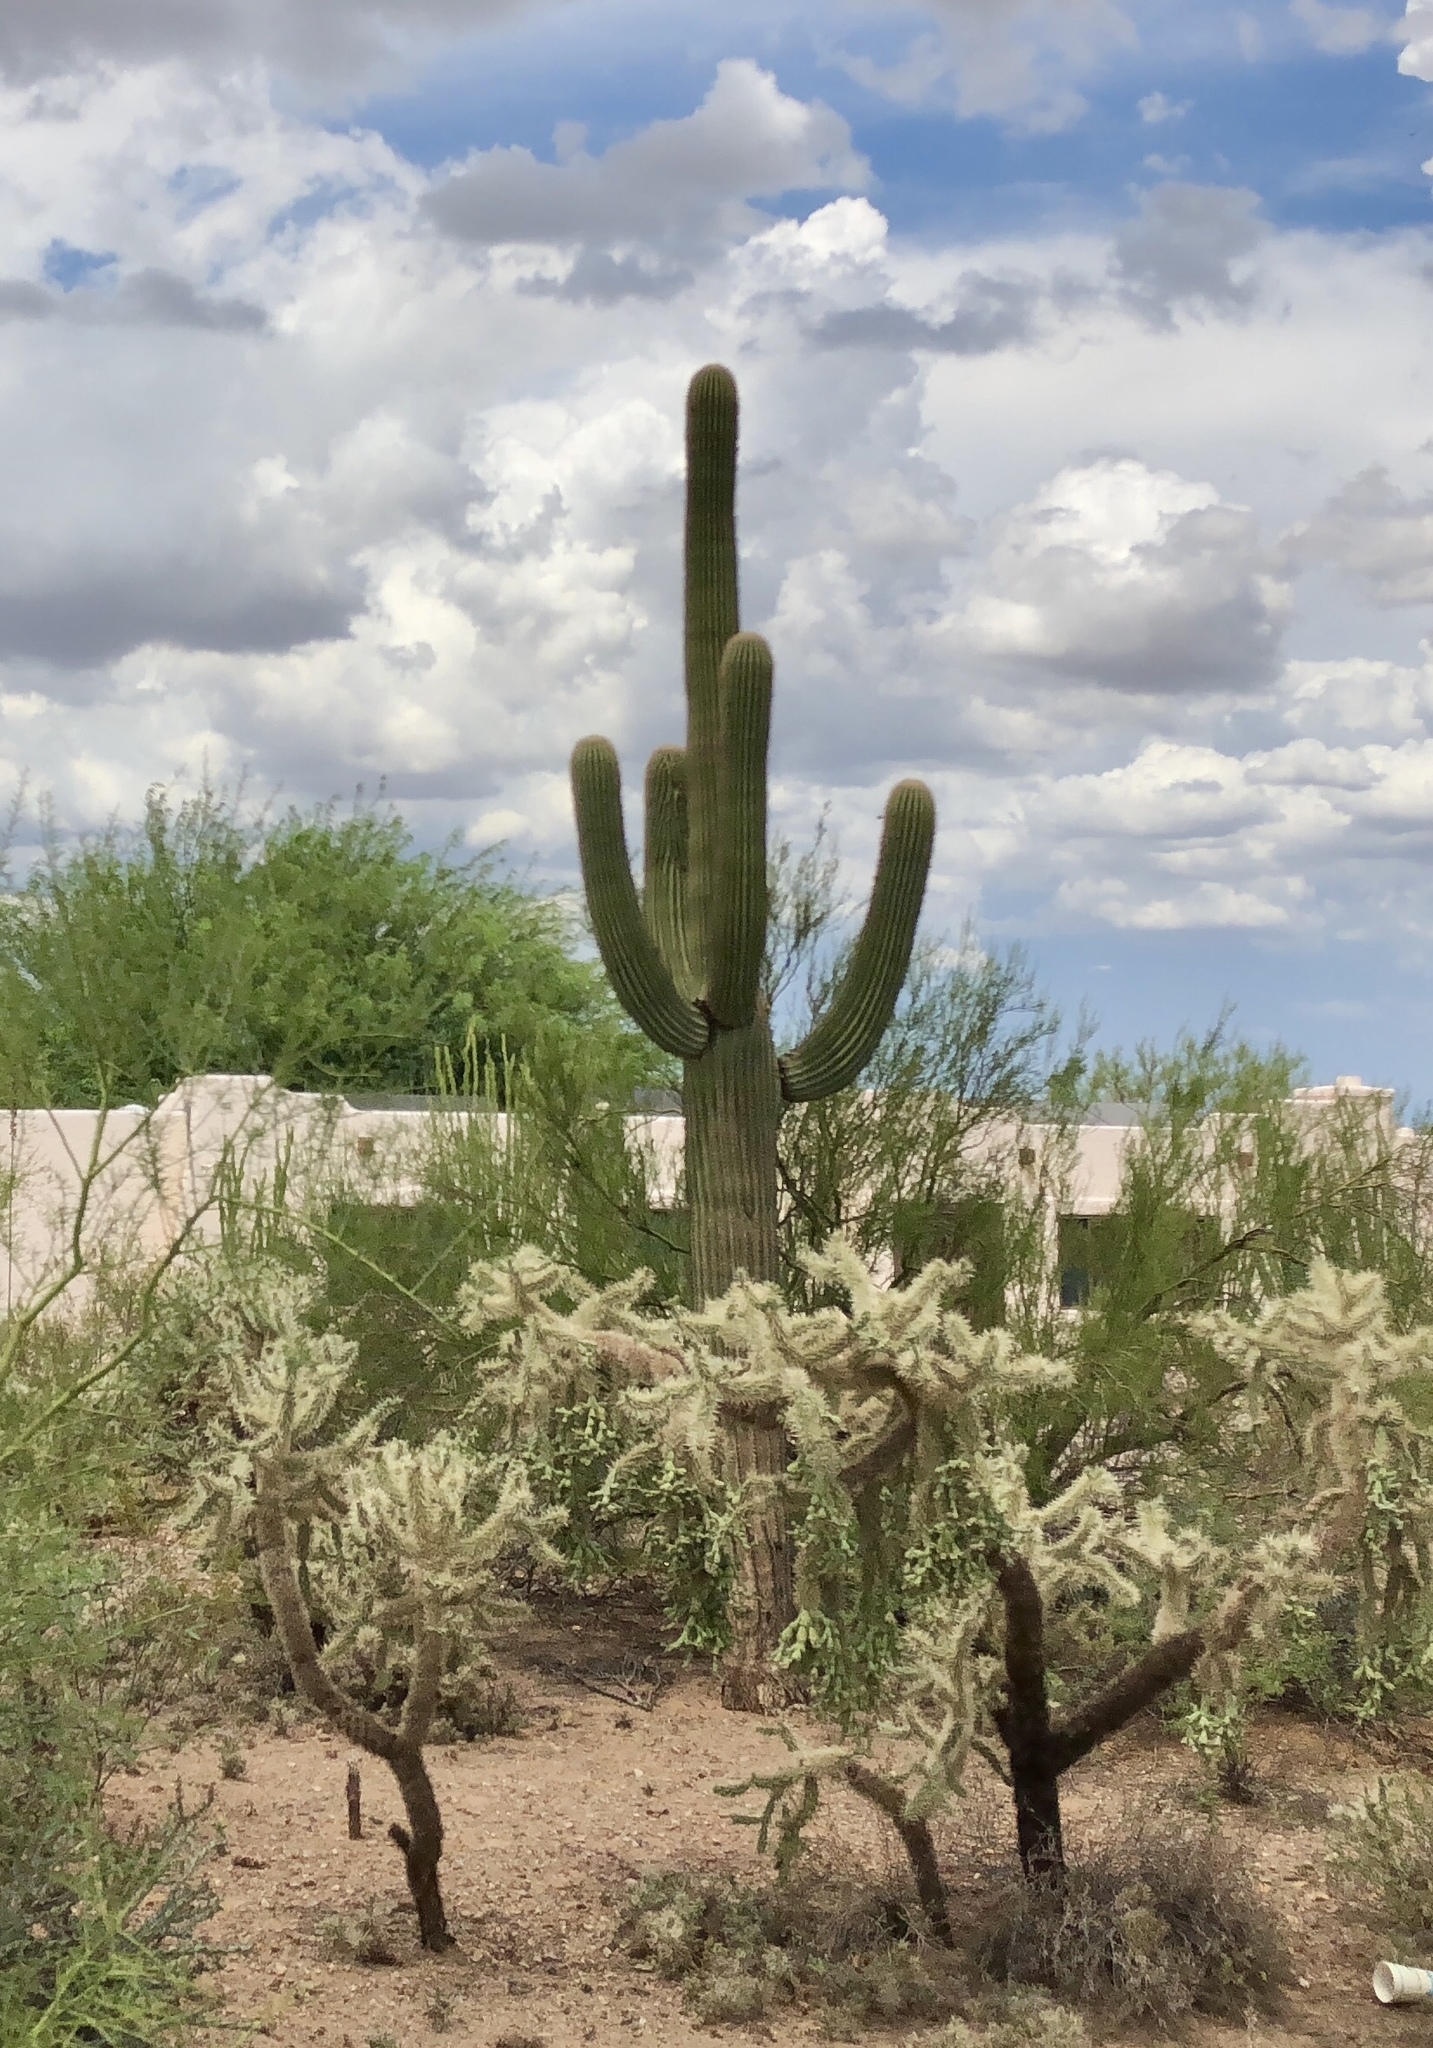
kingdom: Plantae
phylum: Tracheophyta
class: Magnoliopsida
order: Caryophyllales
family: Cactaceae
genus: Carnegiea
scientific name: Carnegiea gigantea
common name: Saguaro
